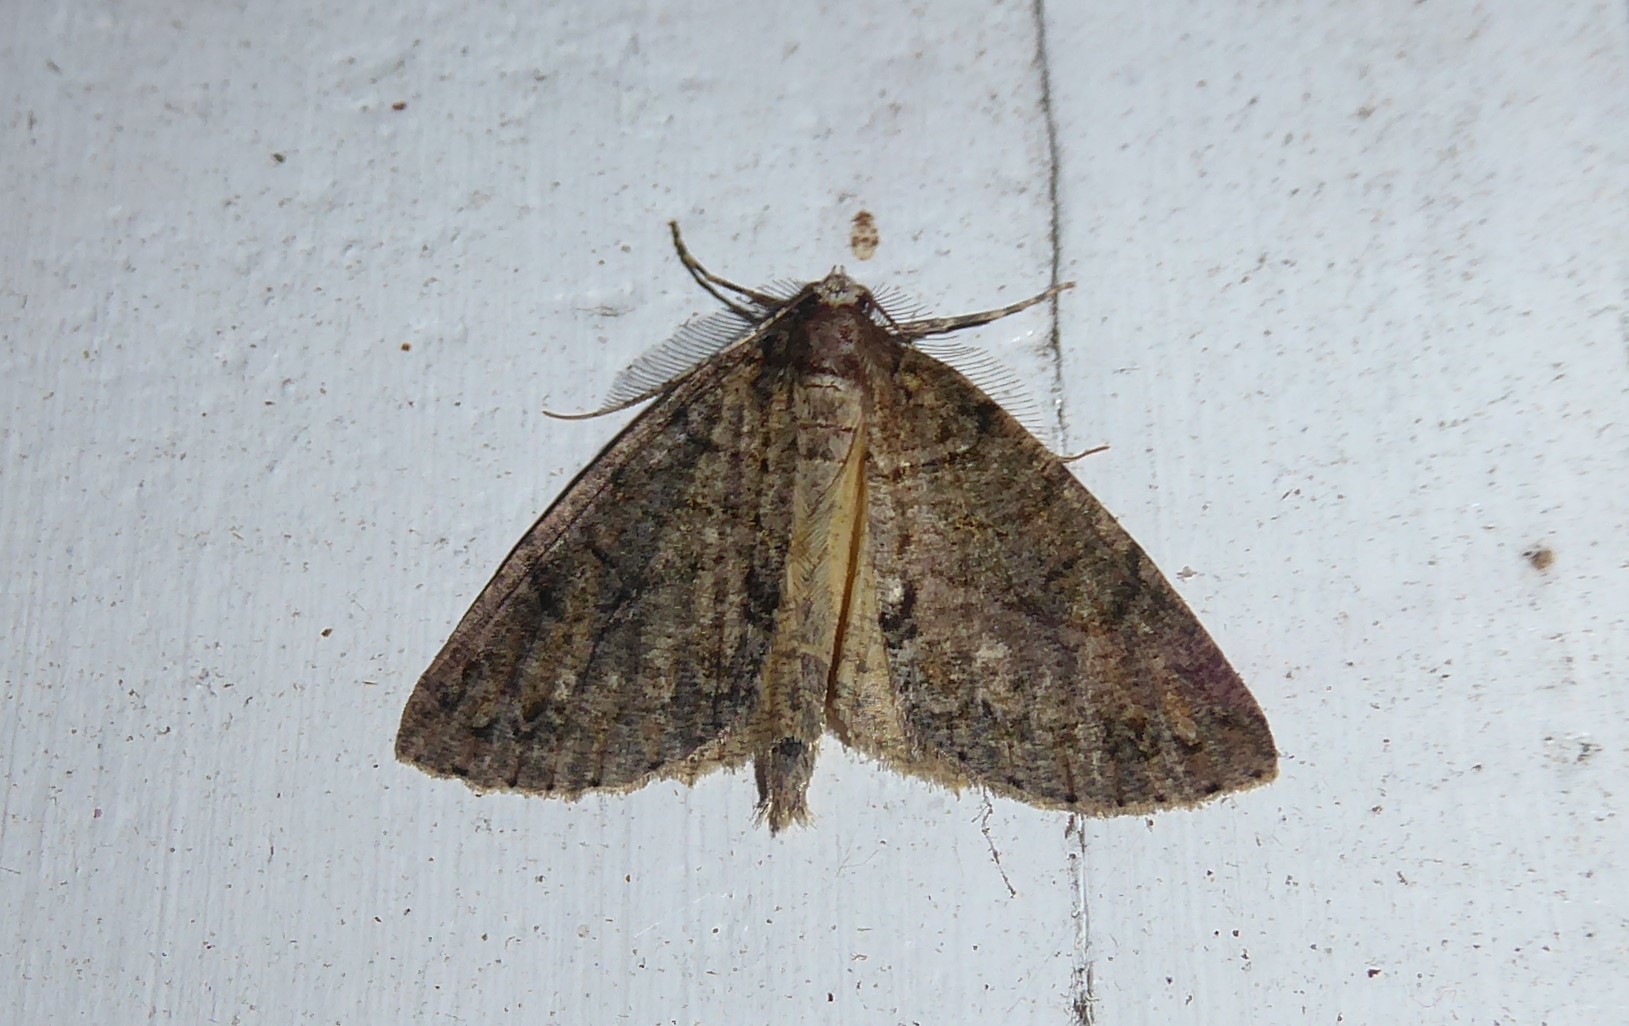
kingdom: Animalia
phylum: Arthropoda
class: Insecta
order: Lepidoptera
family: Geometridae
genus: Pseudocoremia
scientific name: Pseudocoremia suavis
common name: Common forest looper
